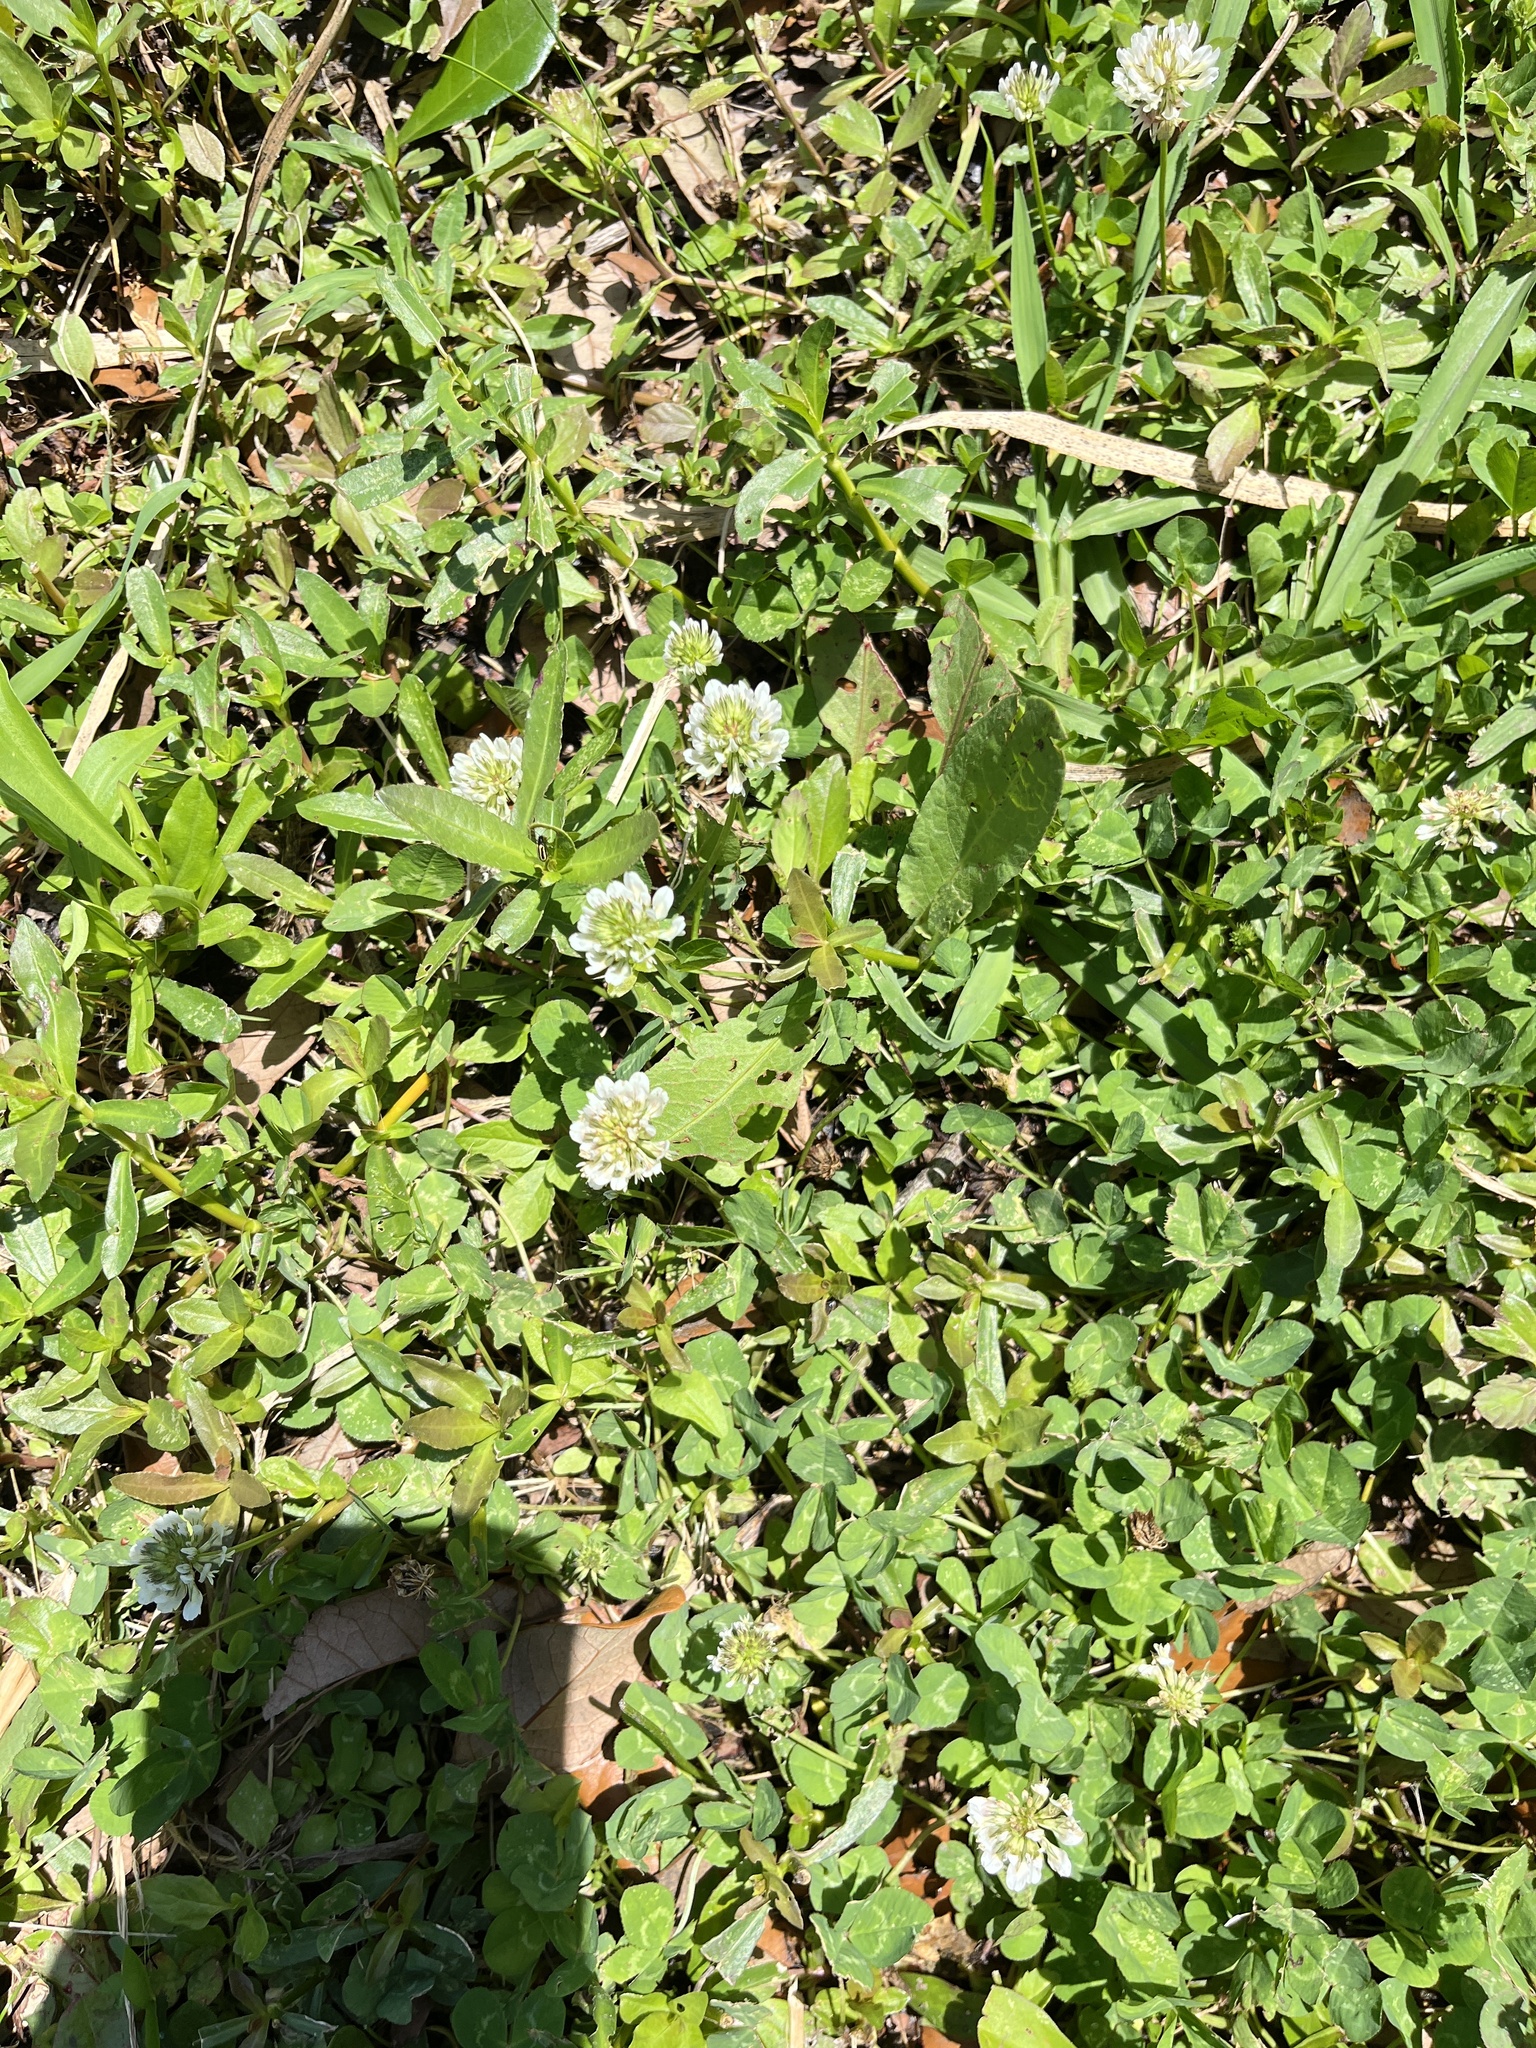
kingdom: Plantae
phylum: Tracheophyta
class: Magnoliopsida
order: Fabales
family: Fabaceae
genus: Trifolium
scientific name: Trifolium repens
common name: White clover
